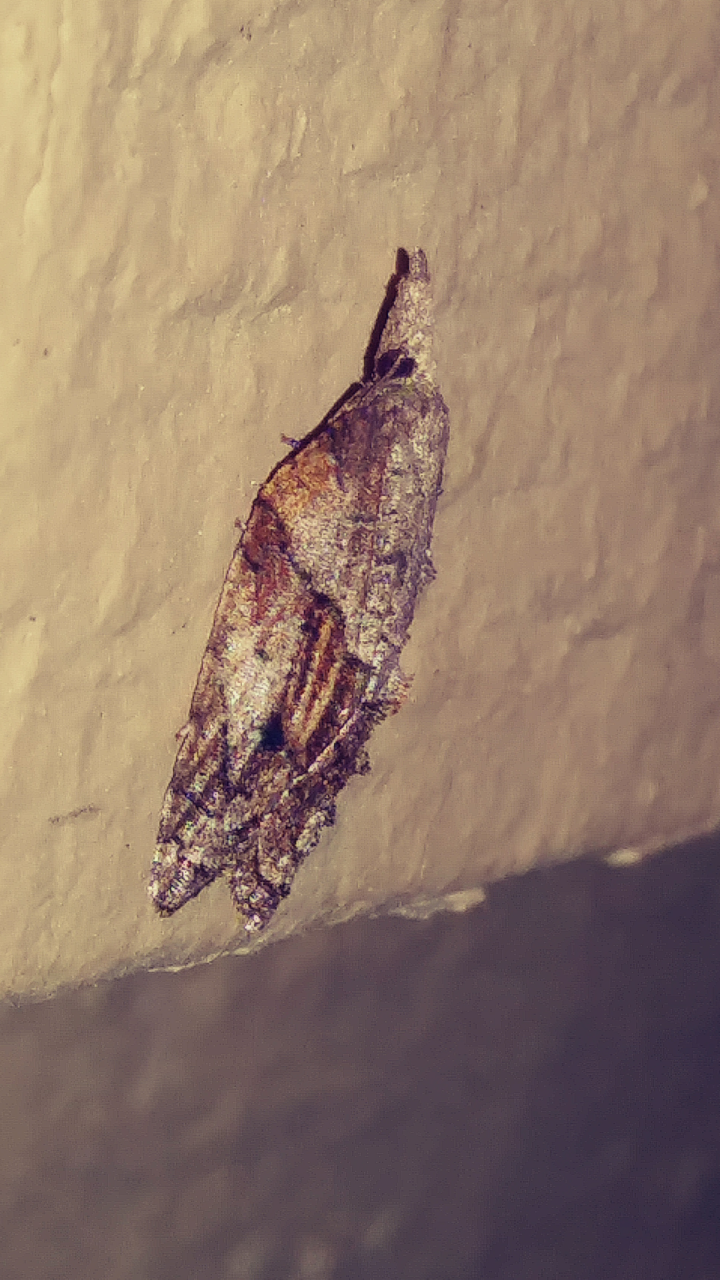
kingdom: Animalia
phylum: Arthropoda
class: Insecta
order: Lepidoptera
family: Tortricidae
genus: Platynota
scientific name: Platynota idaeusalis
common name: Tufted apple bud moth
